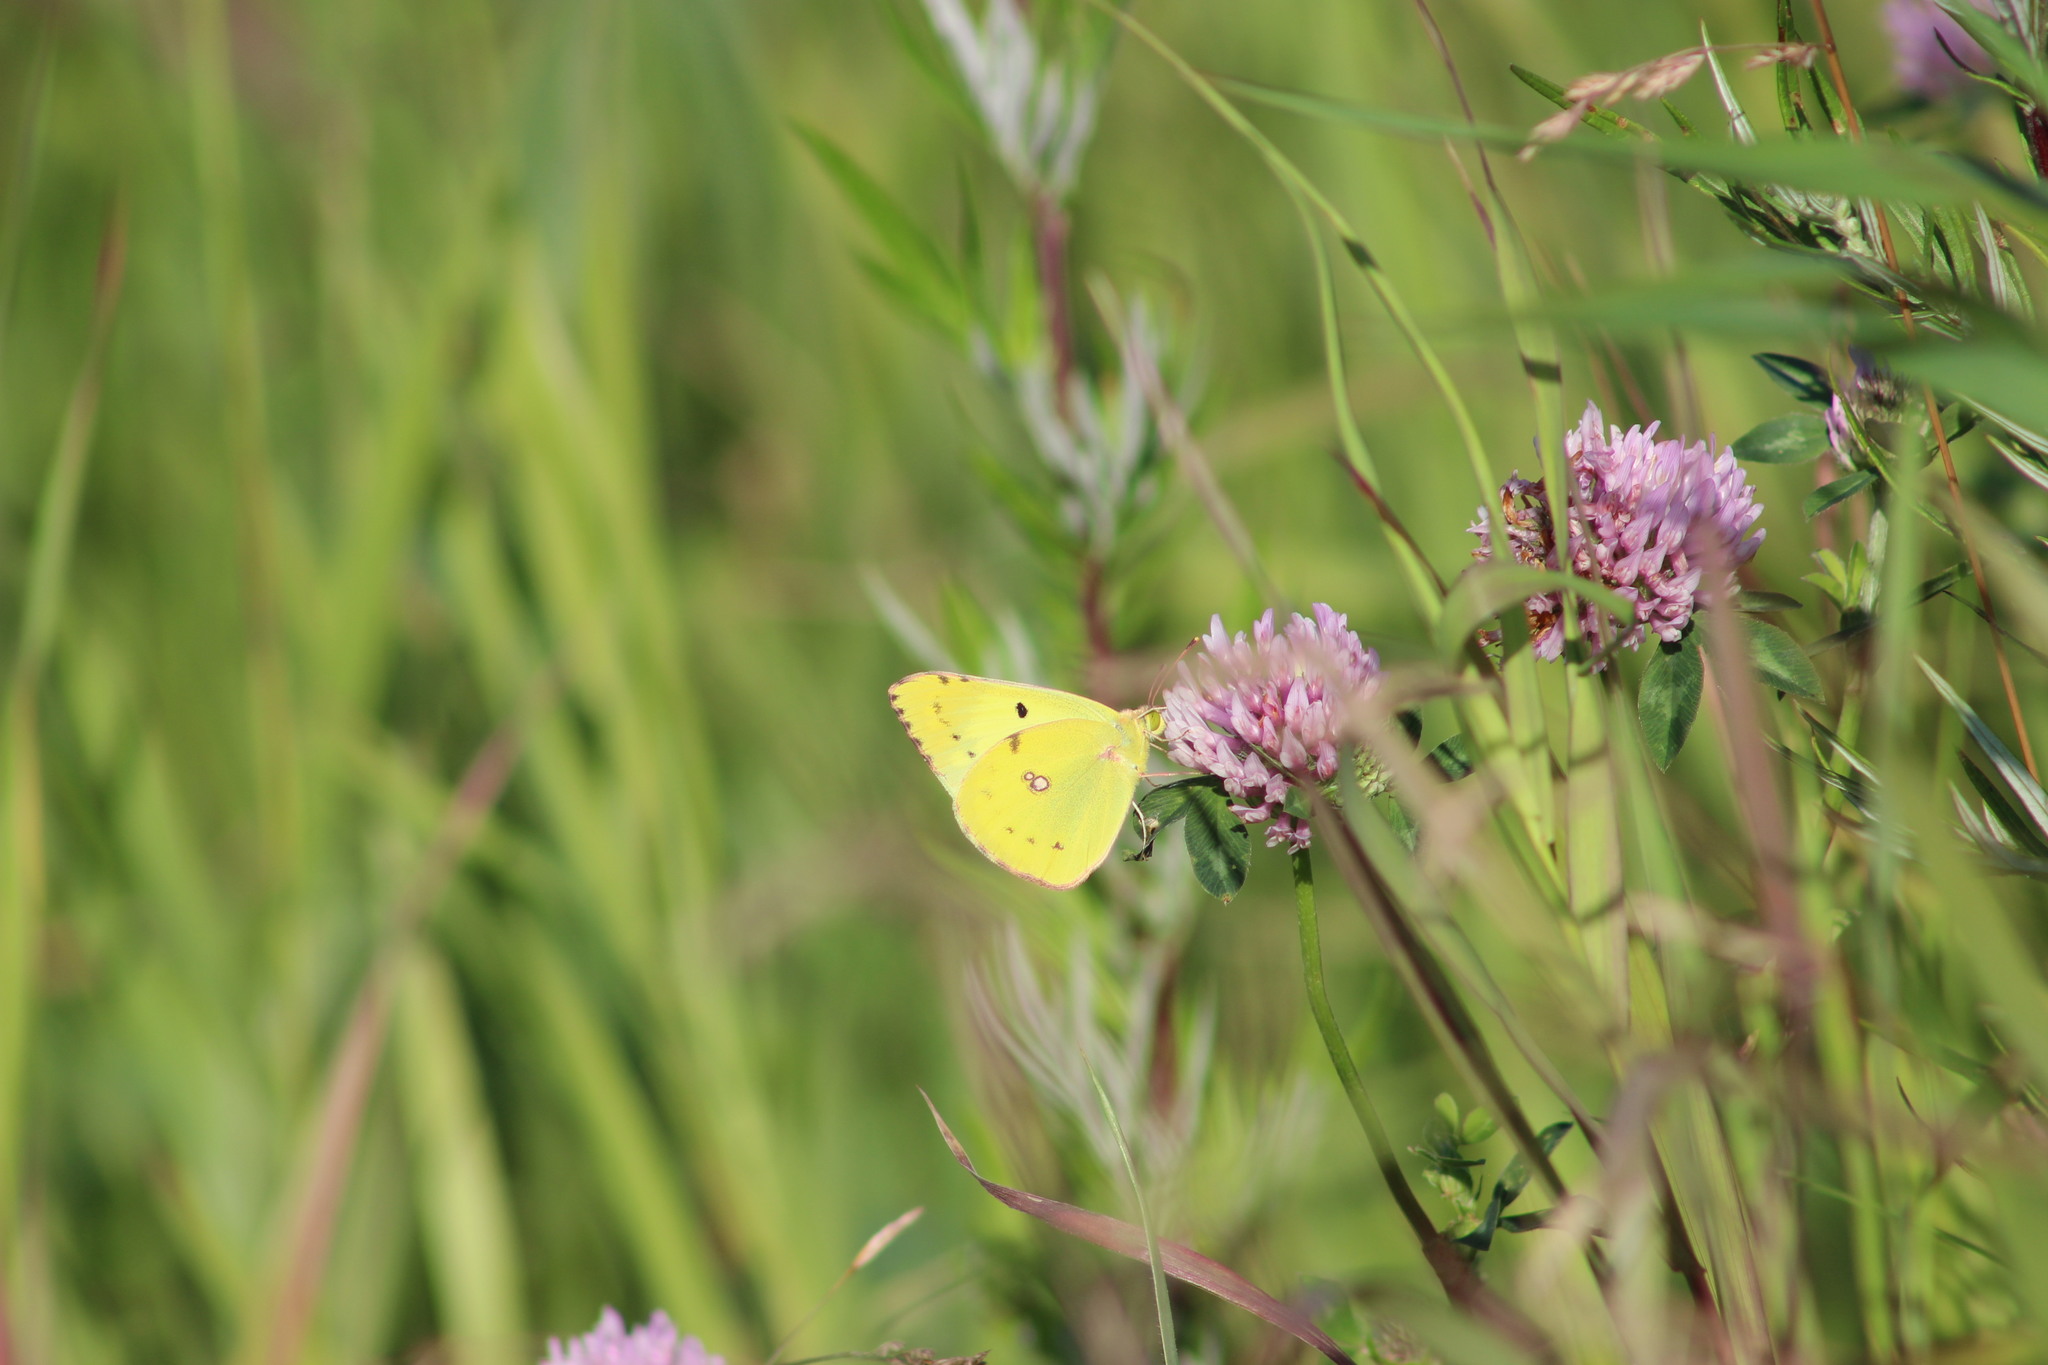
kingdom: Animalia
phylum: Arthropoda
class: Insecta
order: Lepidoptera
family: Pieridae
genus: Colias
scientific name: Colias hyale
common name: Pale clouded yellow
